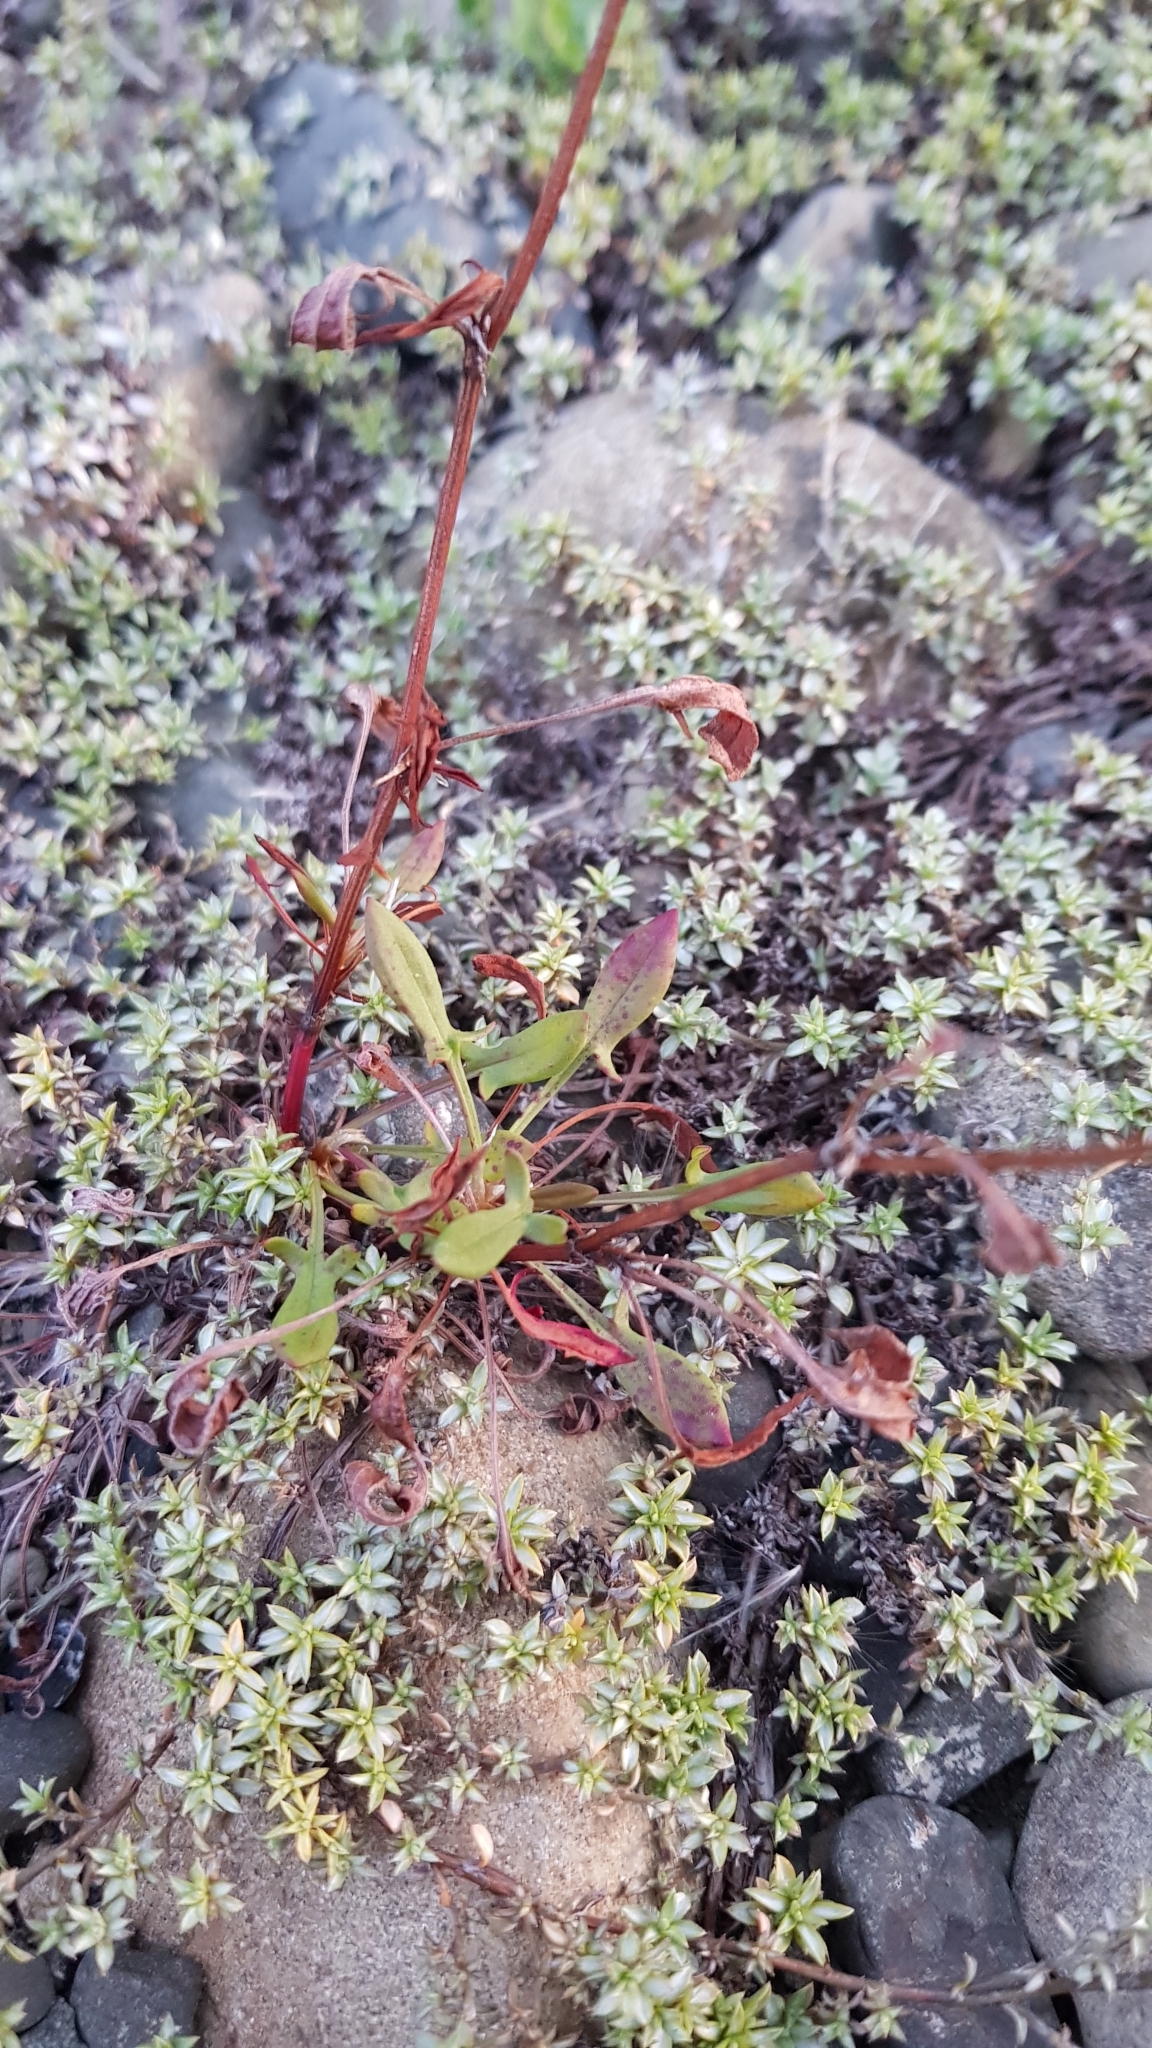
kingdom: Plantae
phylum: Tracheophyta
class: Magnoliopsida
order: Caryophyllales
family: Polygonaceae
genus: Rumex
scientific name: Rumex acetosella
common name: Common sheep sorrel
